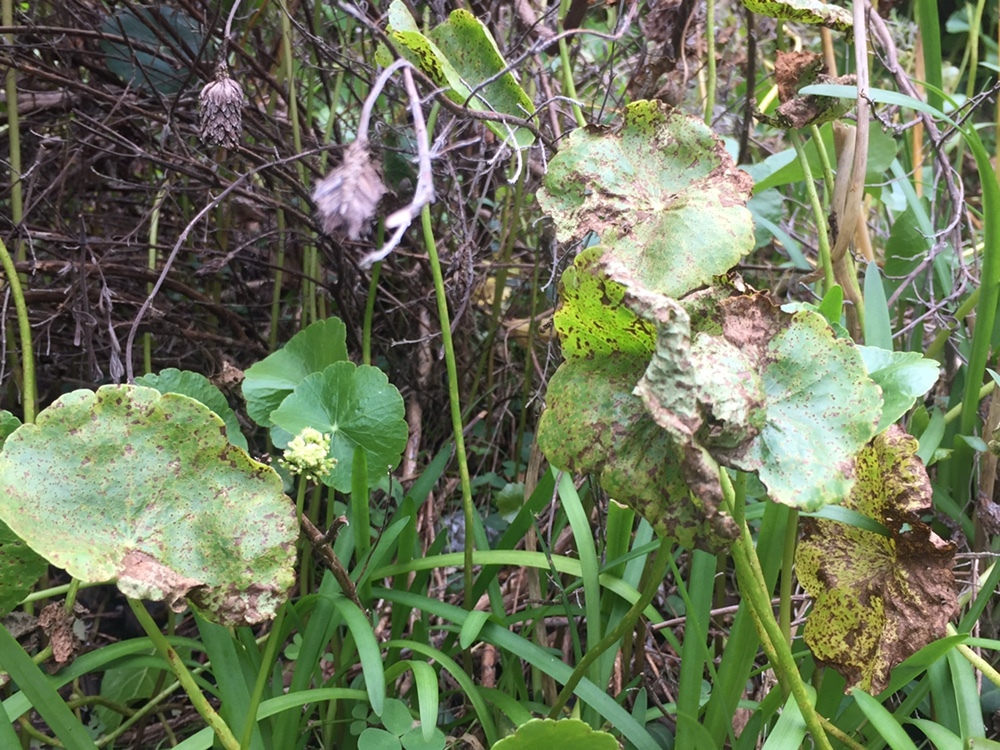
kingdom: Fungi
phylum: Basidiomycota
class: Pucciniomycetes
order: Pucciniales
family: Pucciniaceae
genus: Puccinia
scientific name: Puccinia hydrocotyles
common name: Rusty pennies
